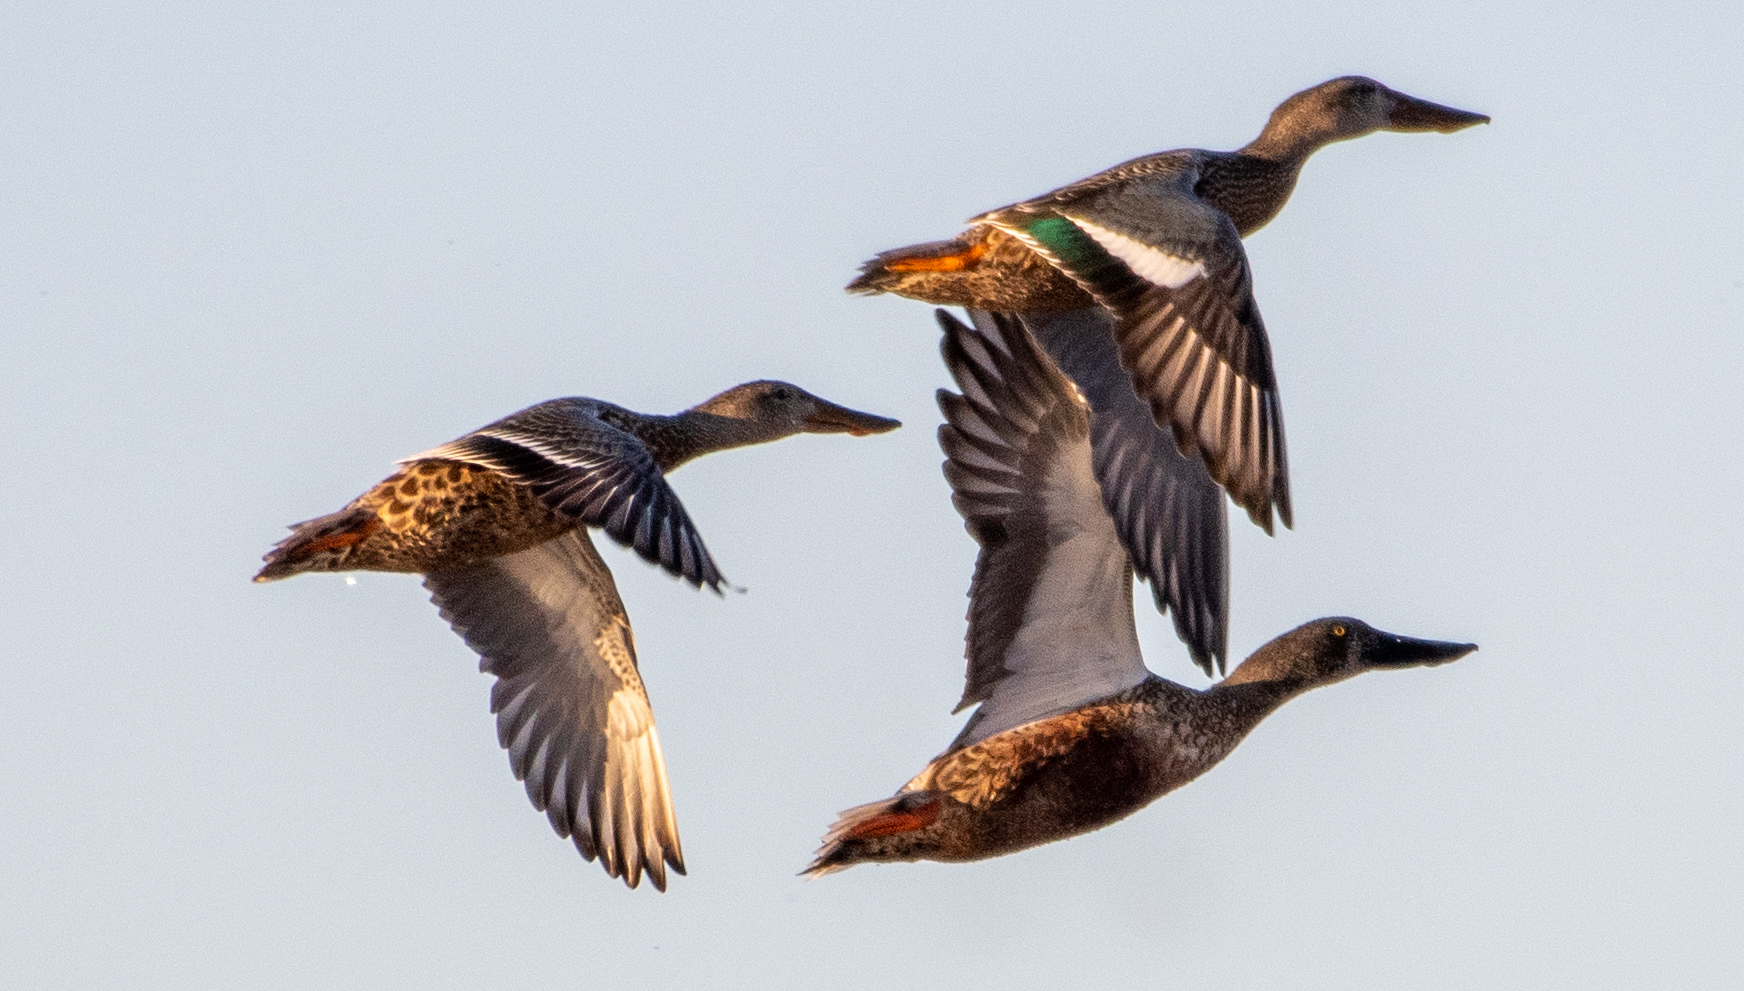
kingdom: Animalia
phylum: Chordata
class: Aves
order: Anseriformes
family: Anatidae
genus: Spatula
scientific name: Spatula clypeata
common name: Northern shoveler
